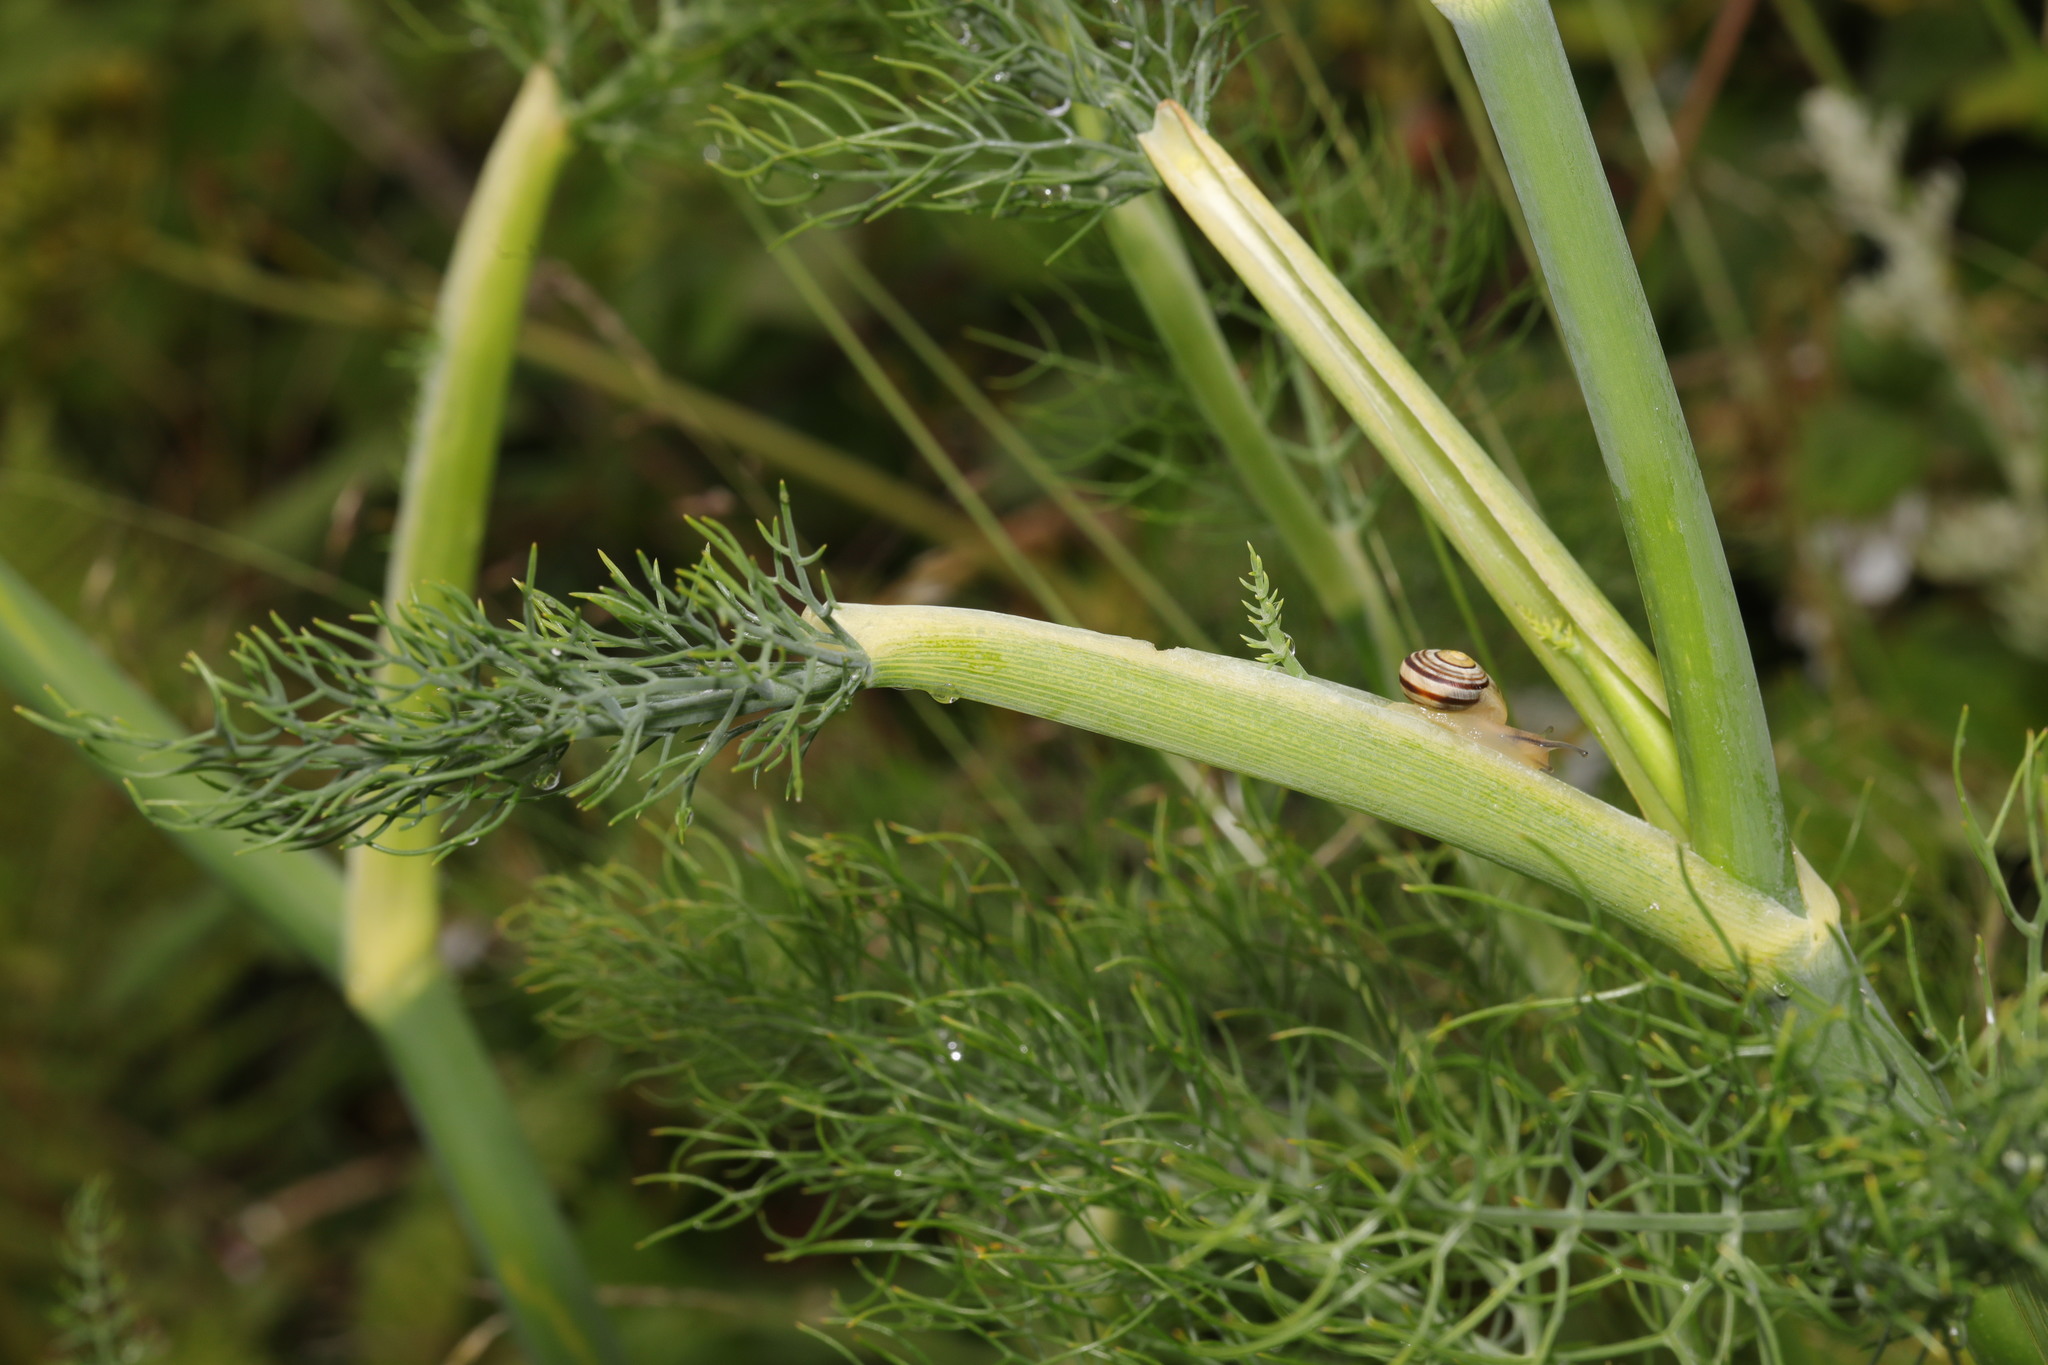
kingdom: Animalia
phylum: Mollusca
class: Gastropoda
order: Stylommatophora
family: Helicidae
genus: Cepaea
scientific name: Cepaea
